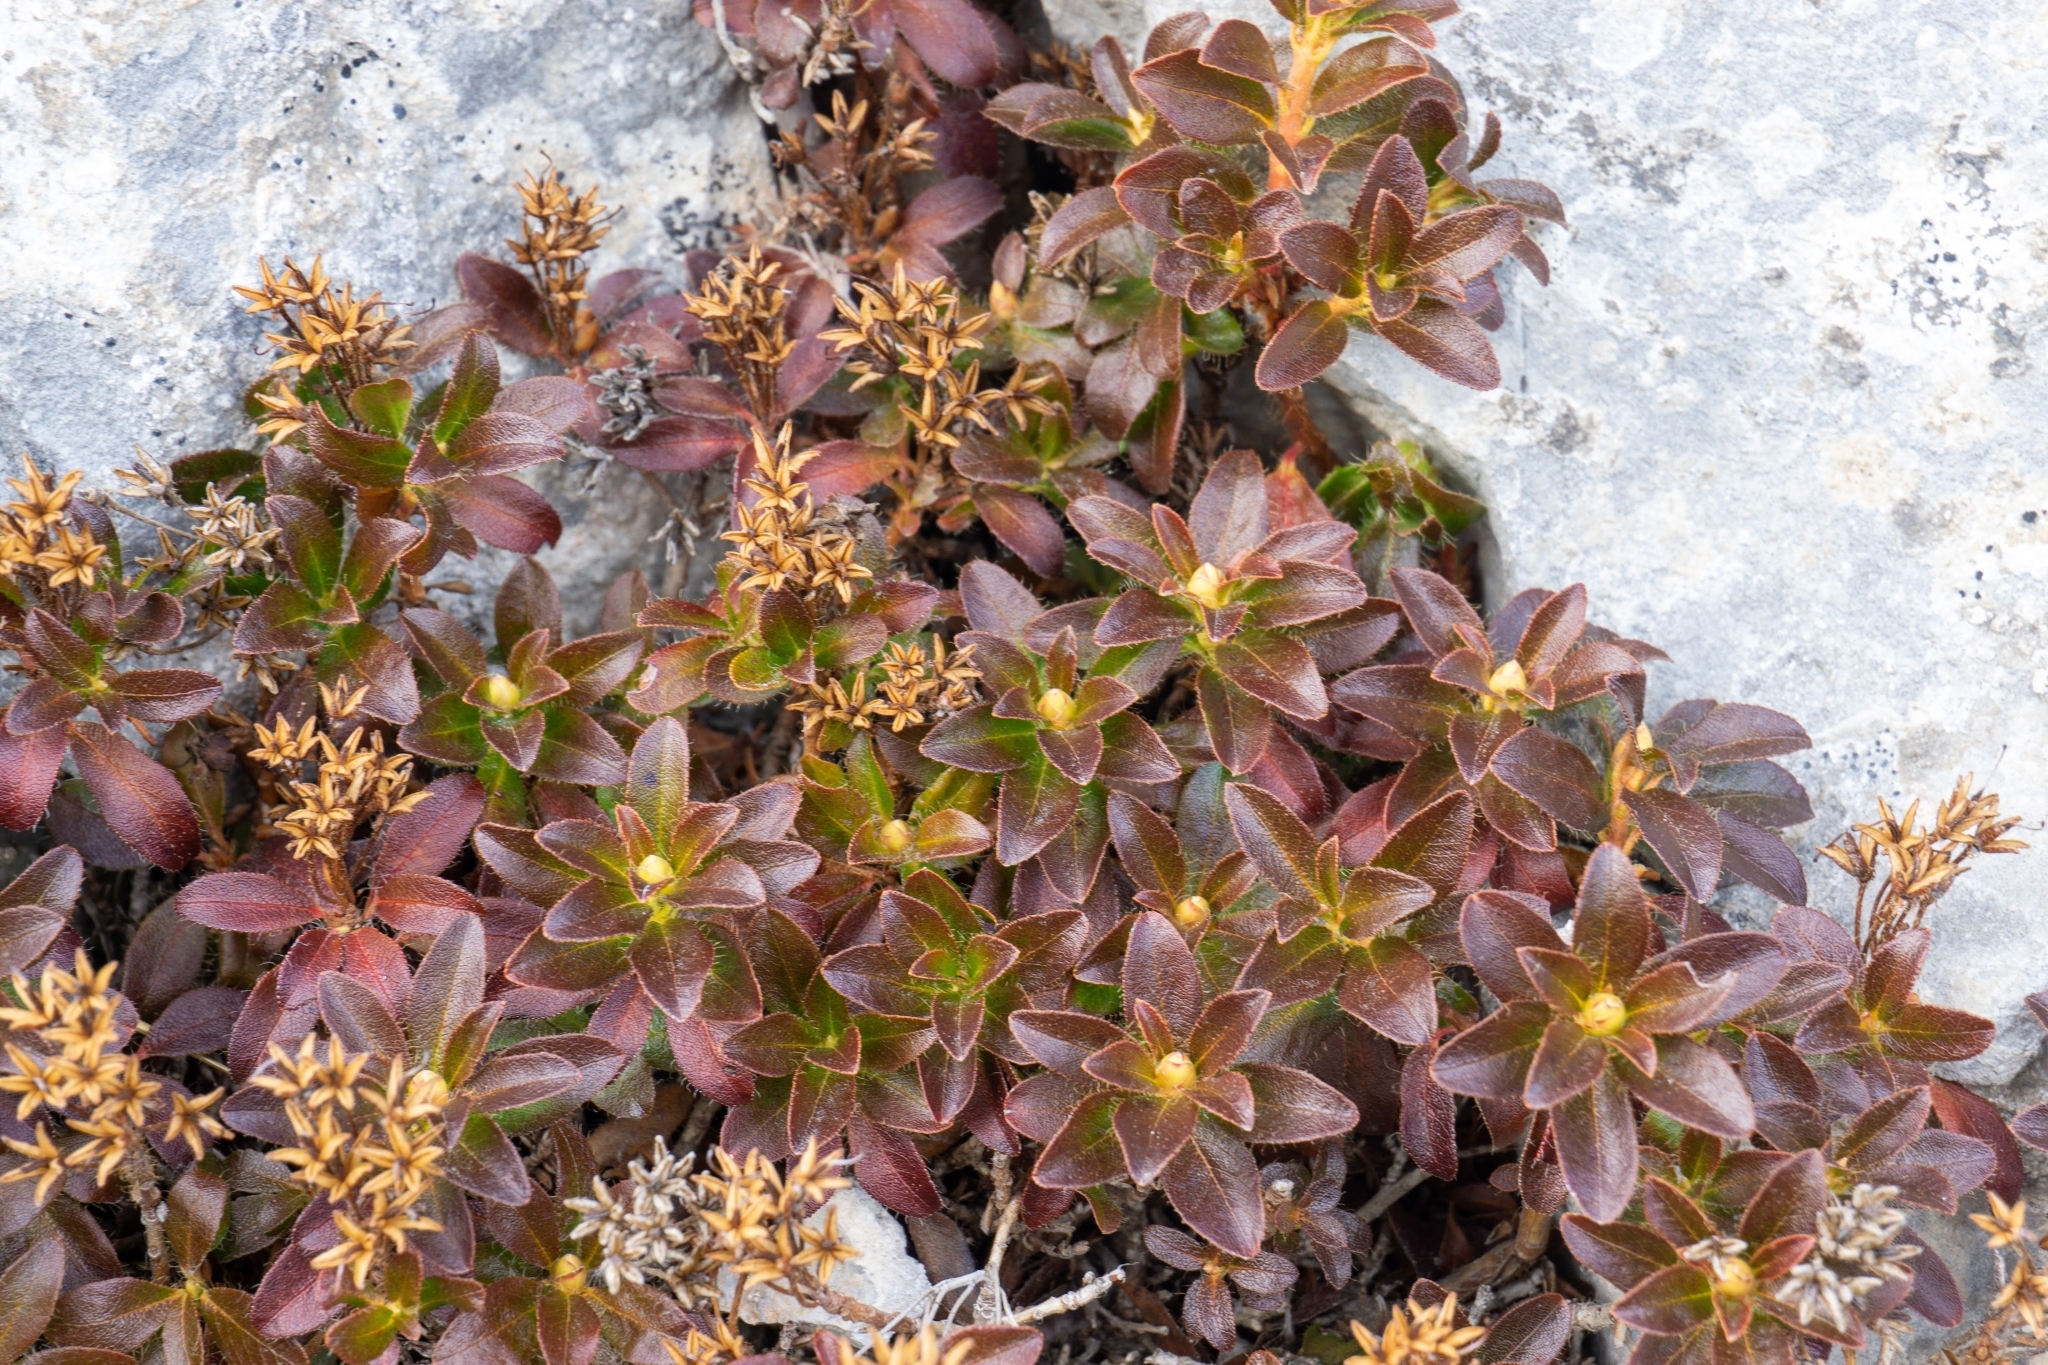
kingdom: Plantae
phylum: Tracheophyta
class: Magnoliopsida
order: Ericales
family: Ericaceae
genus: Rhododendron
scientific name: Rhododendron hirsutum
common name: Hairy alpenrose
